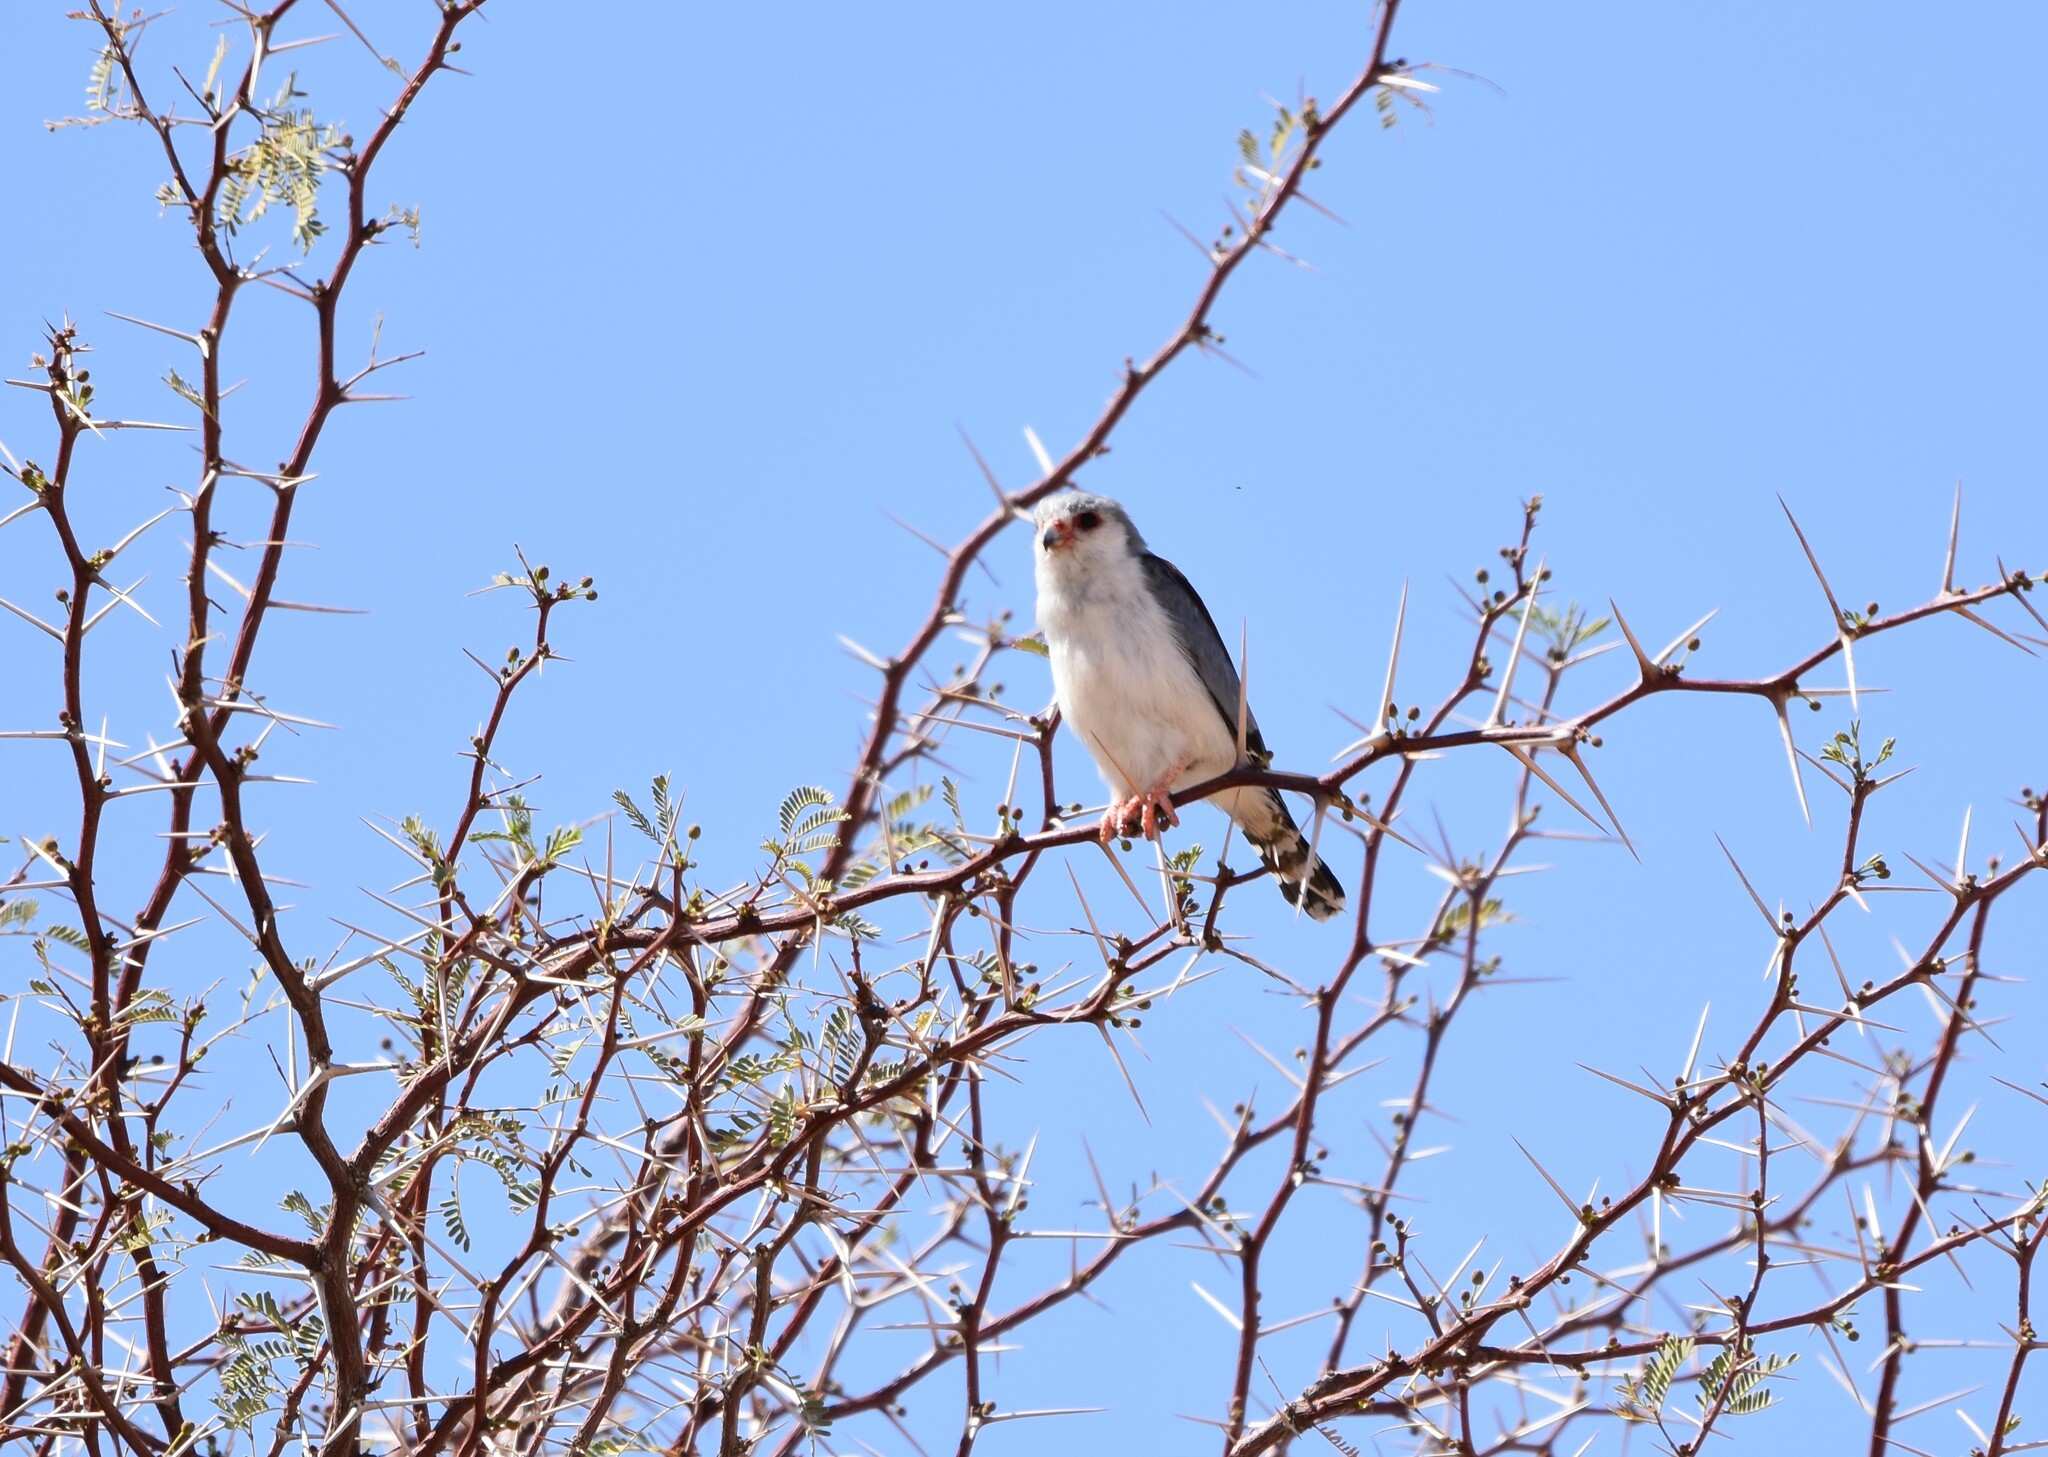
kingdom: Animalia
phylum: Chordata
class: Aves
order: Falconiformes
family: Falconidae
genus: Polihierax
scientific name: Polihierax semitorquatus
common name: Pygmy falcon
